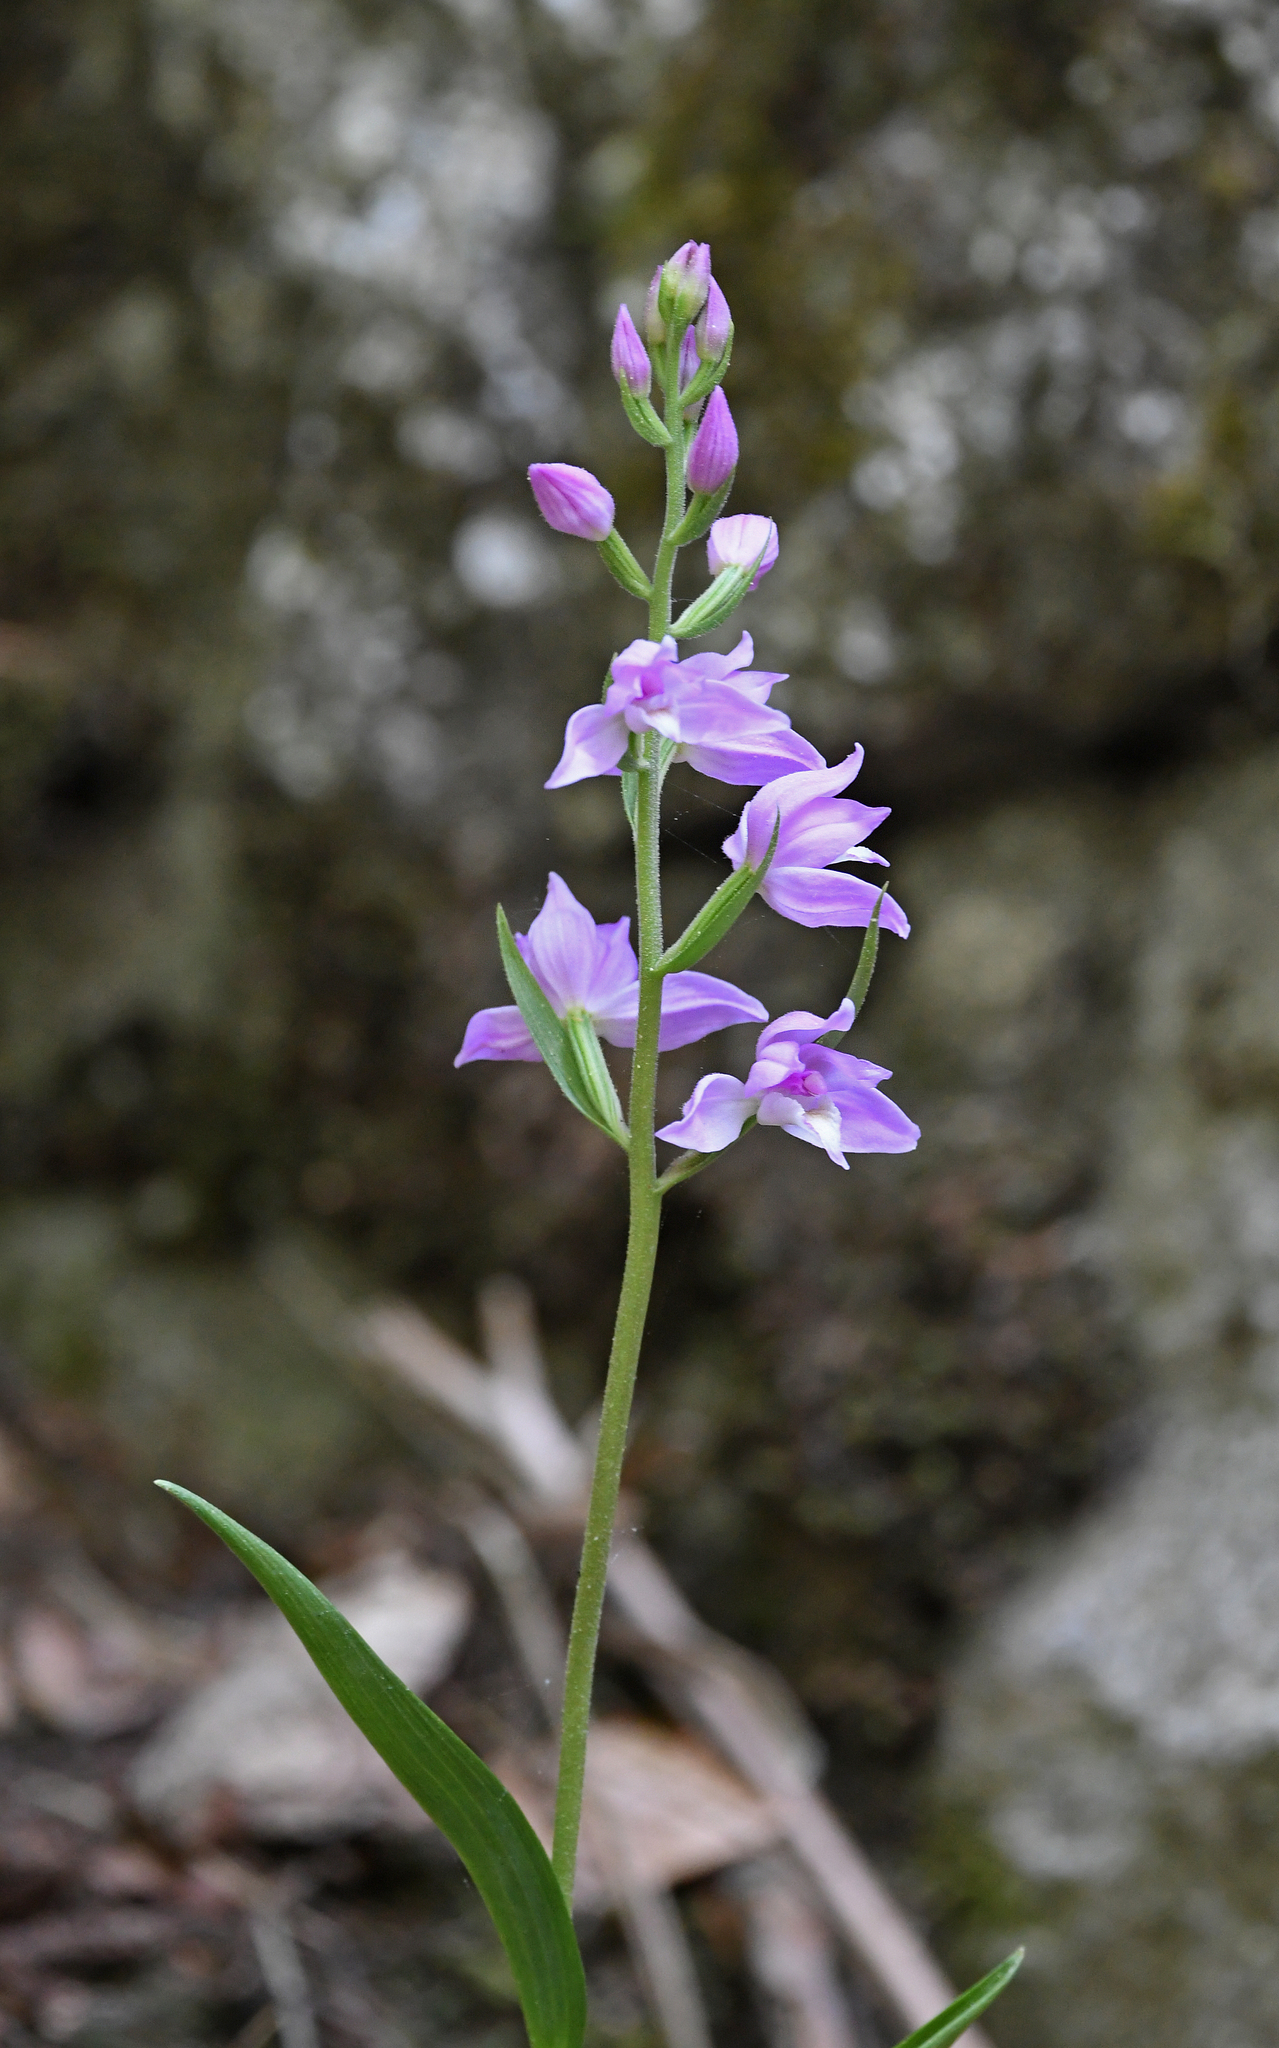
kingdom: Plantae
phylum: Tracheophyta
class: Liliopsida
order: Asparagales
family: Orchidaceae
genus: Cephalanthera
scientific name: Cephalanthera rubra
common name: Red helleborine
